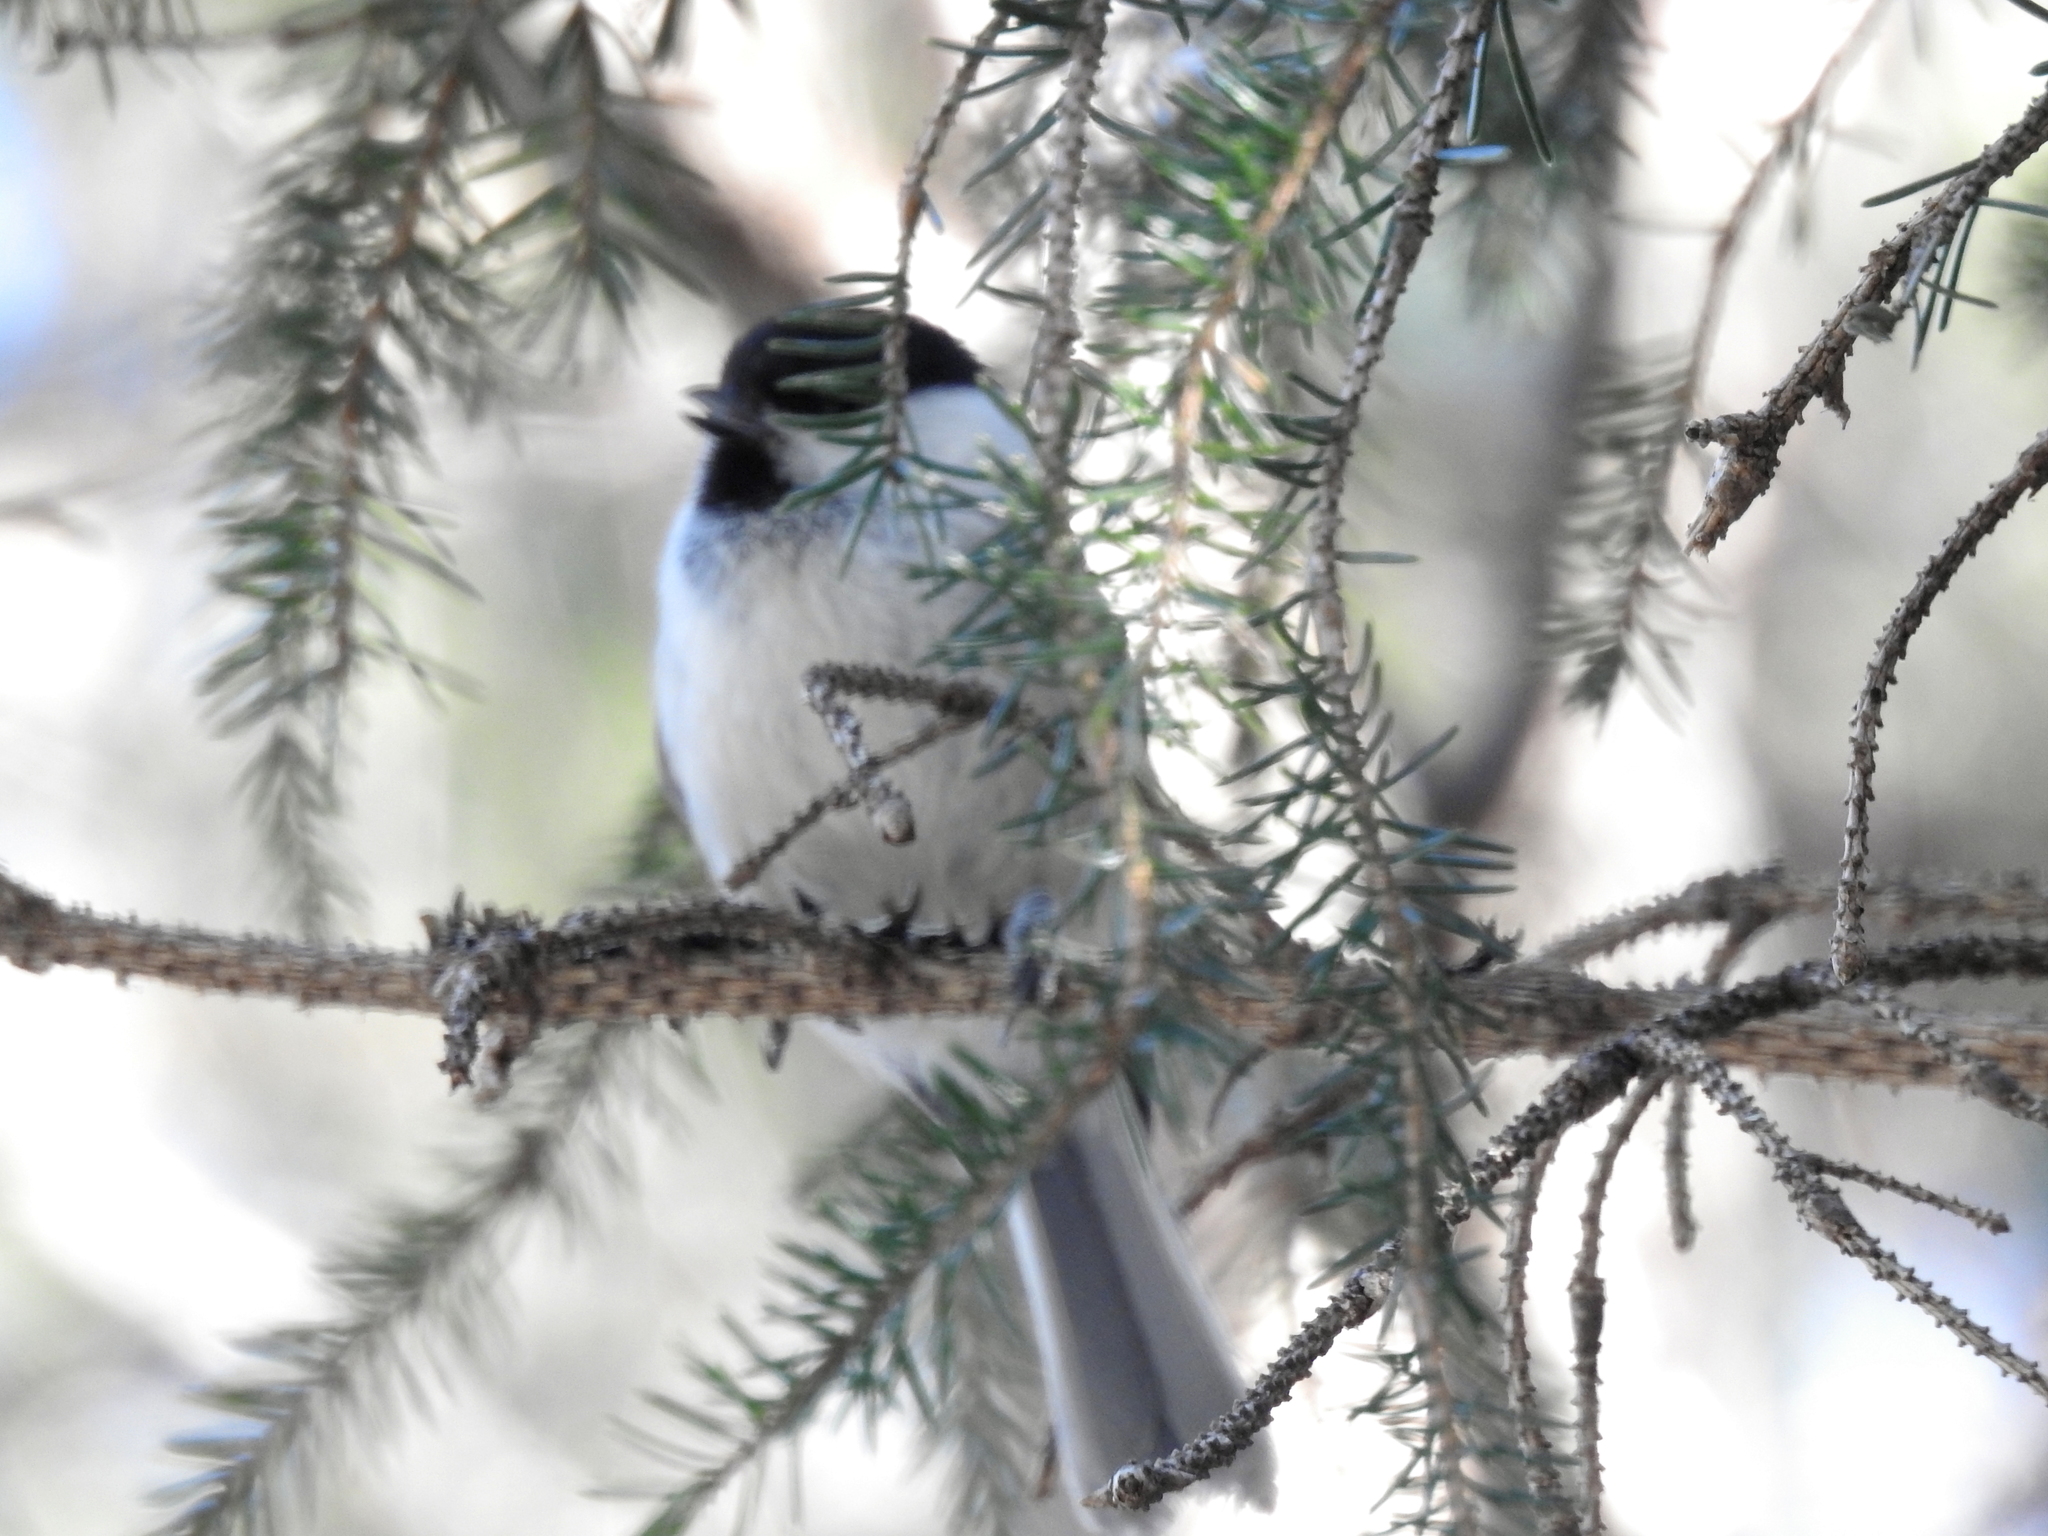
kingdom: Animalia
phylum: Chordata
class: Aves
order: Passeriformes
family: Paridae
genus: Poecile
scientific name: Poecile montanus
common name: Willow tit
